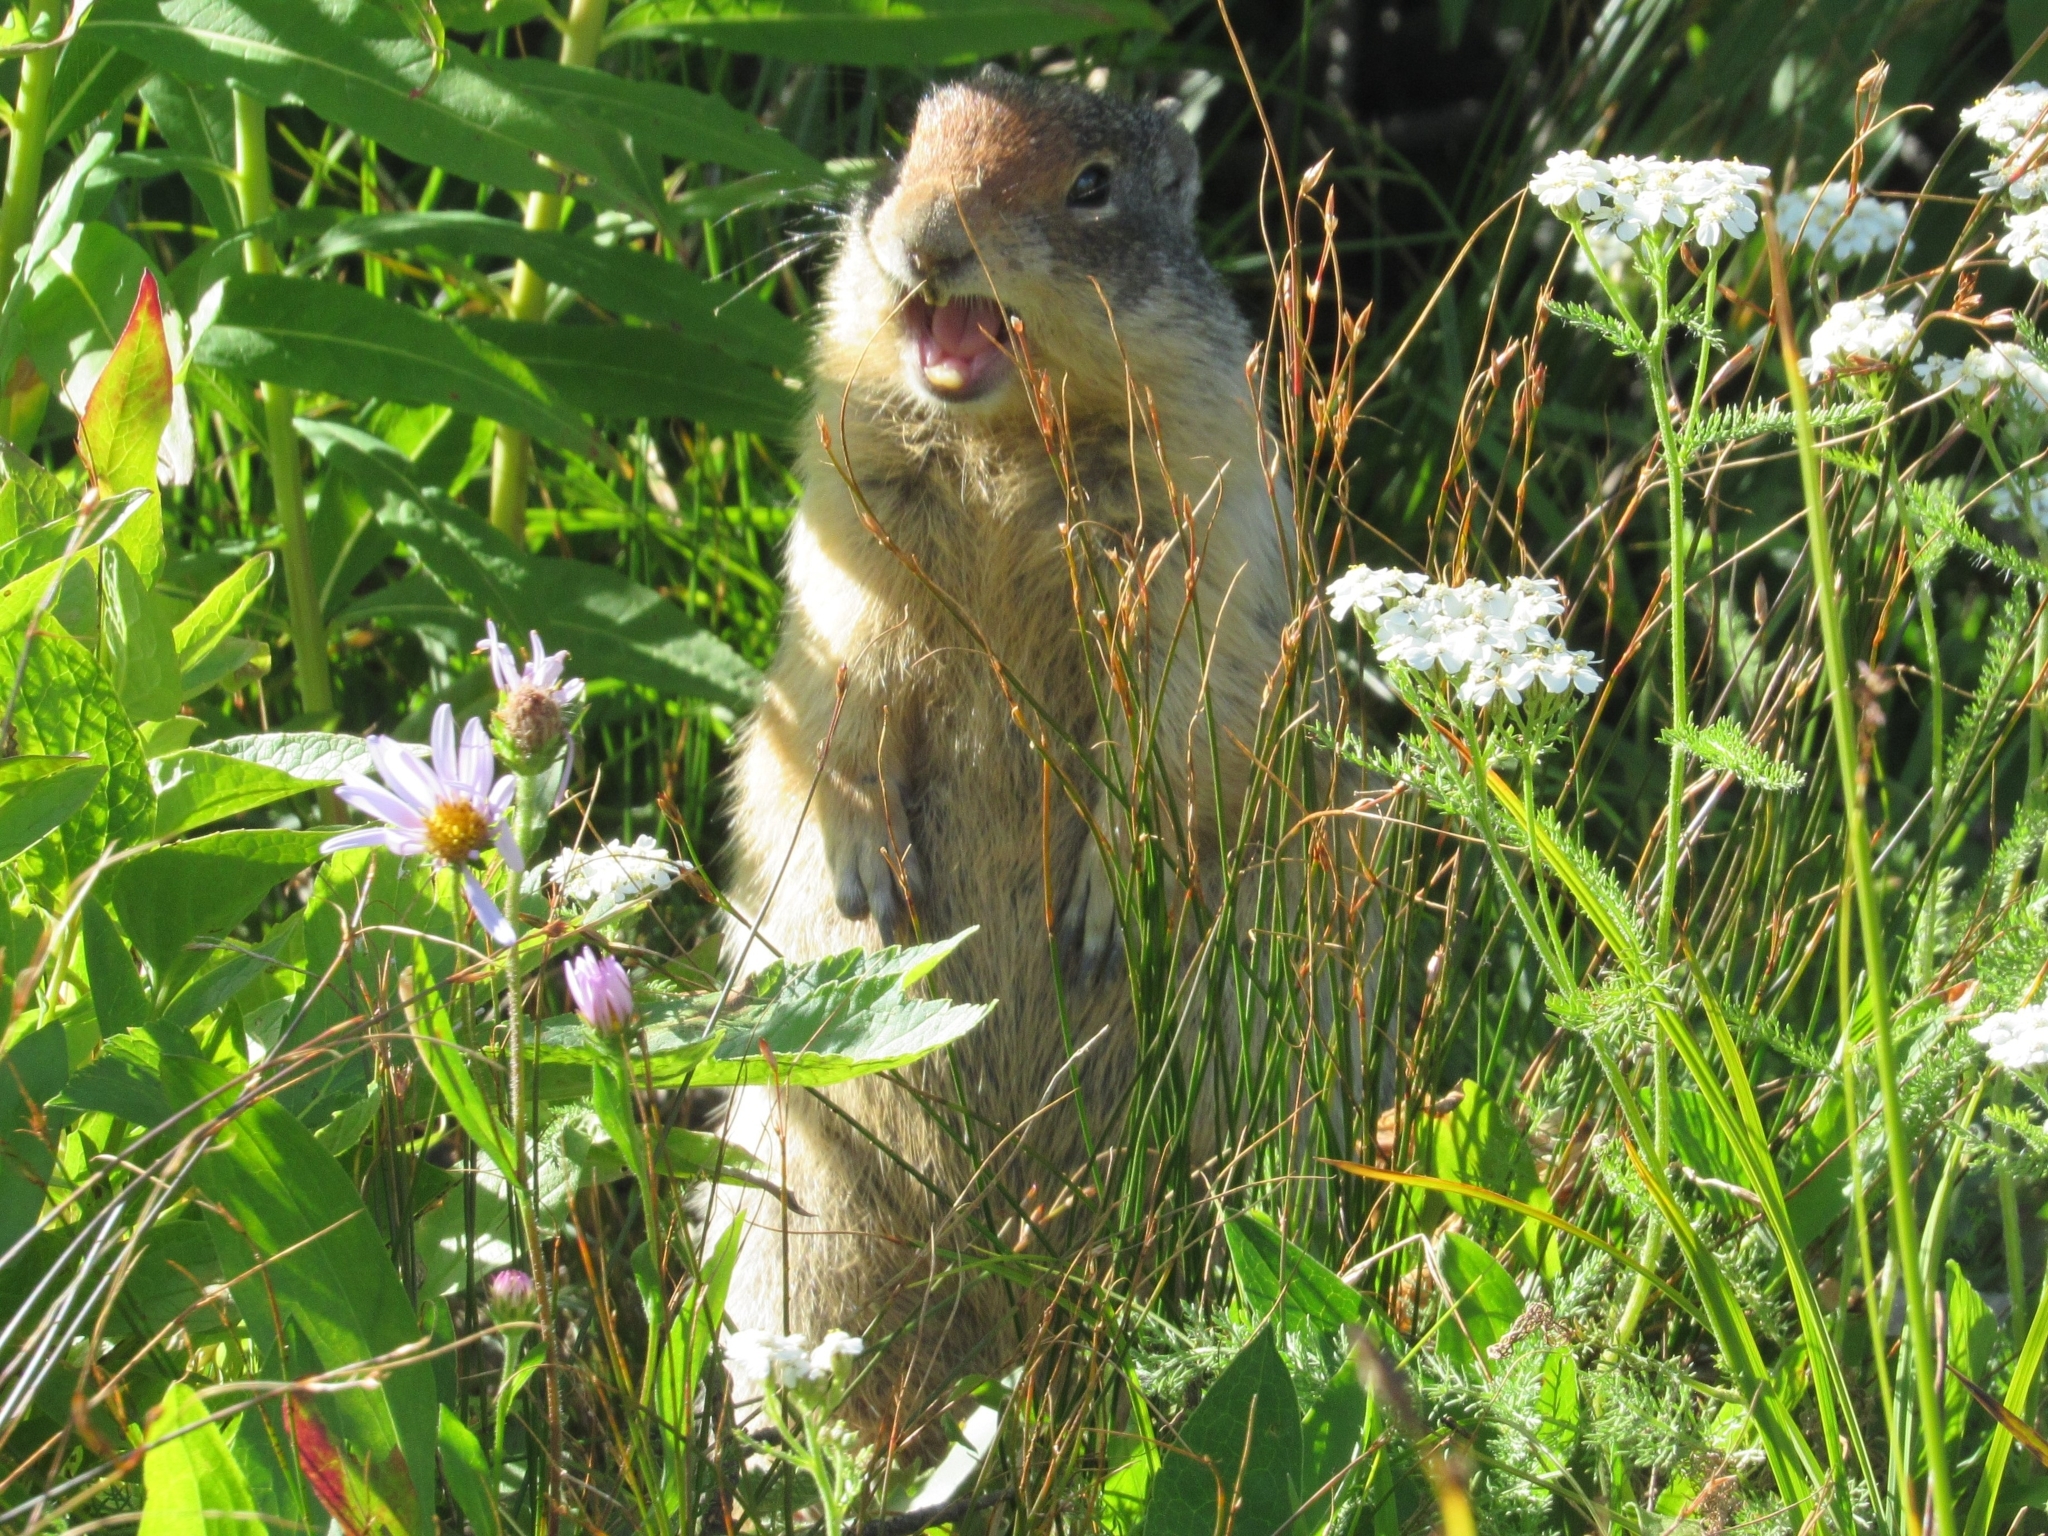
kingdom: Animalia
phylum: Chordata
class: Mammalia
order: Rodentia
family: Sciuridae
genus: Urocitellus
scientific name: Urocitellus columbianus
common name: Columbian ground squirrel
